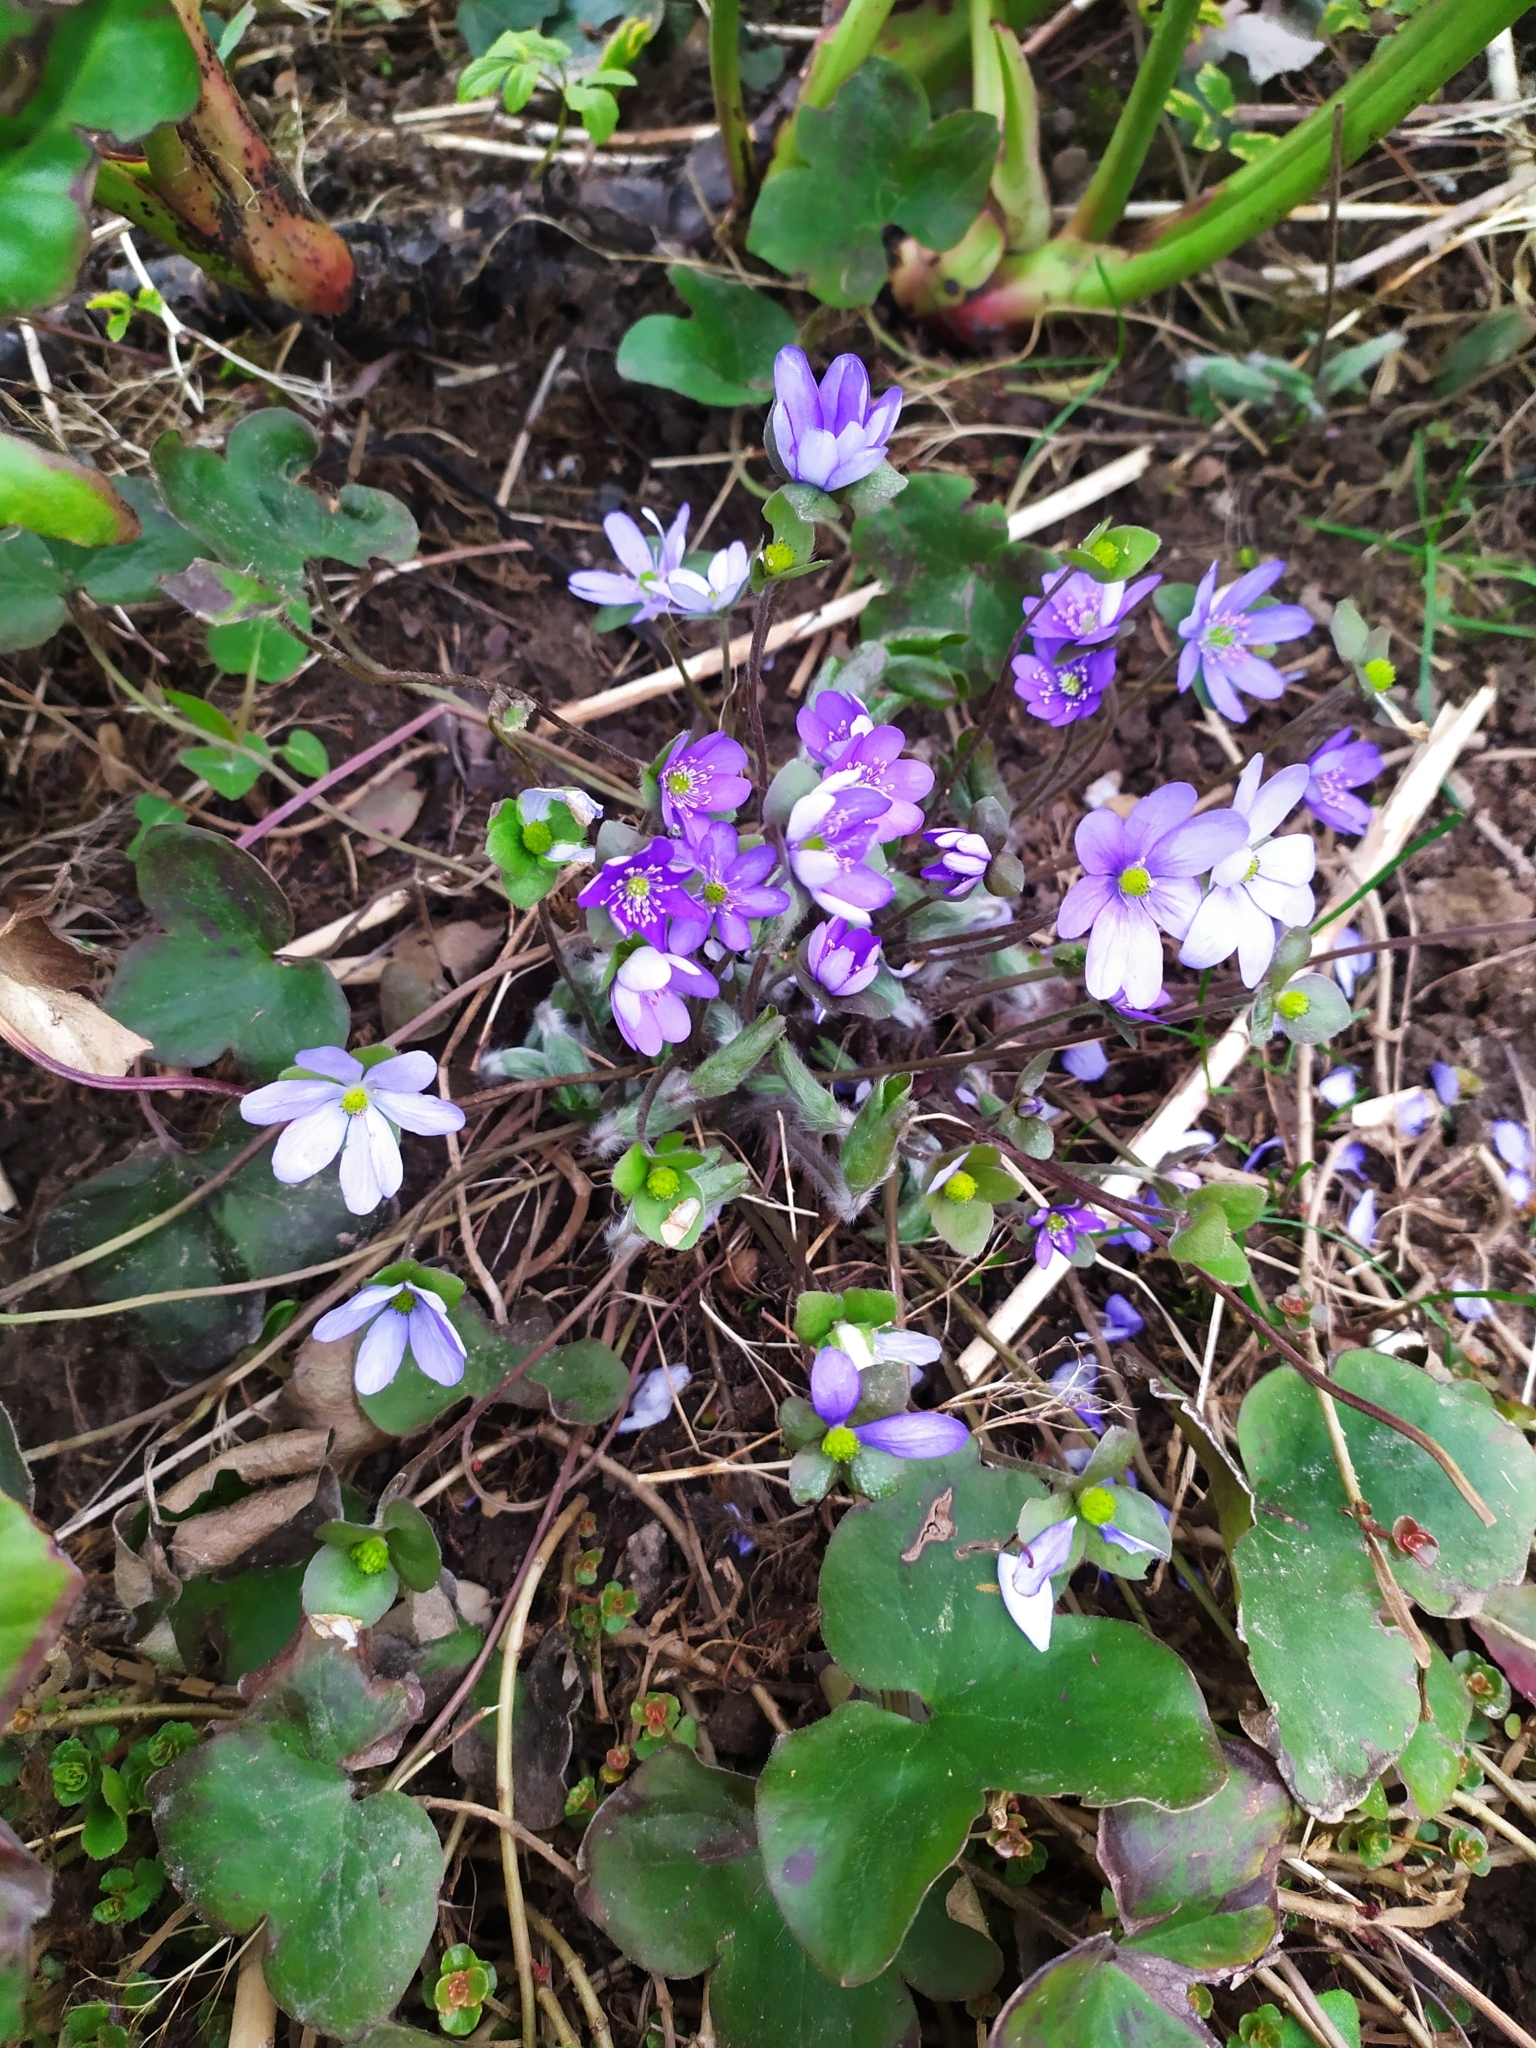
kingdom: Plantae
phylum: Tracheophyta
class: Magnoliopsida
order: Ranunculales
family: Ranunculaceae
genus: Hepatica
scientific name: Hepatica nobilis
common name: Liverleaf
